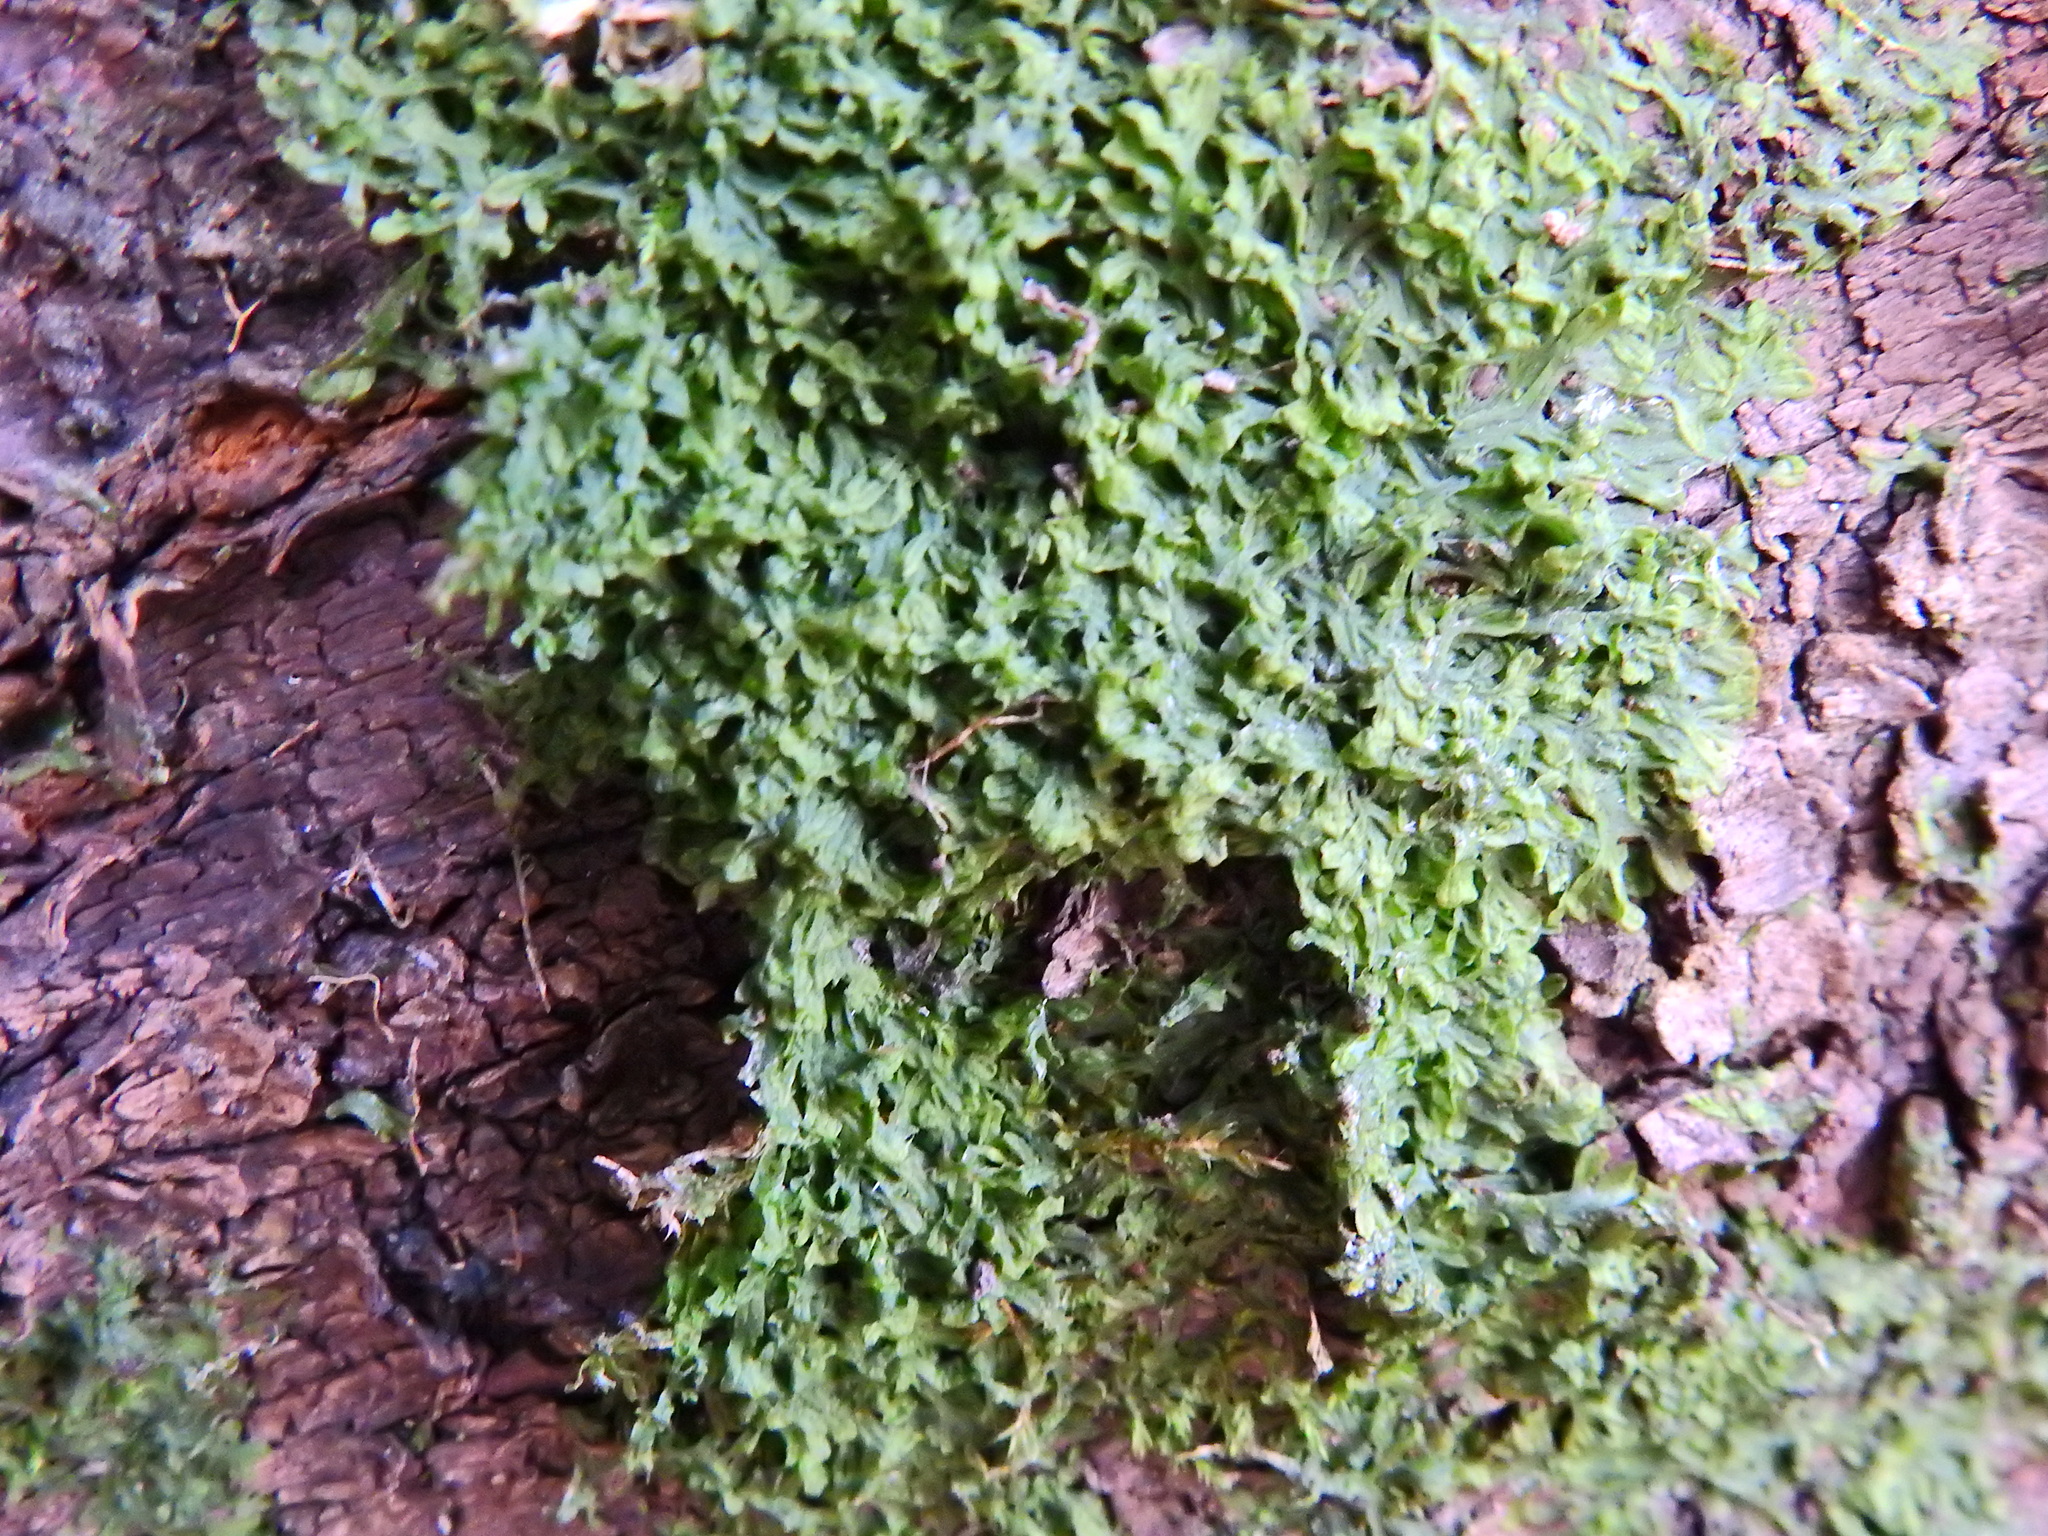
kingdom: Plantae
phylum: Marchantiophyta
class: Jungermanniopsida
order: Metzgeriales
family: Metzgeriaceae
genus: Metzgeria
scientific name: Metzgeria furcata
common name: Forked veilwort
